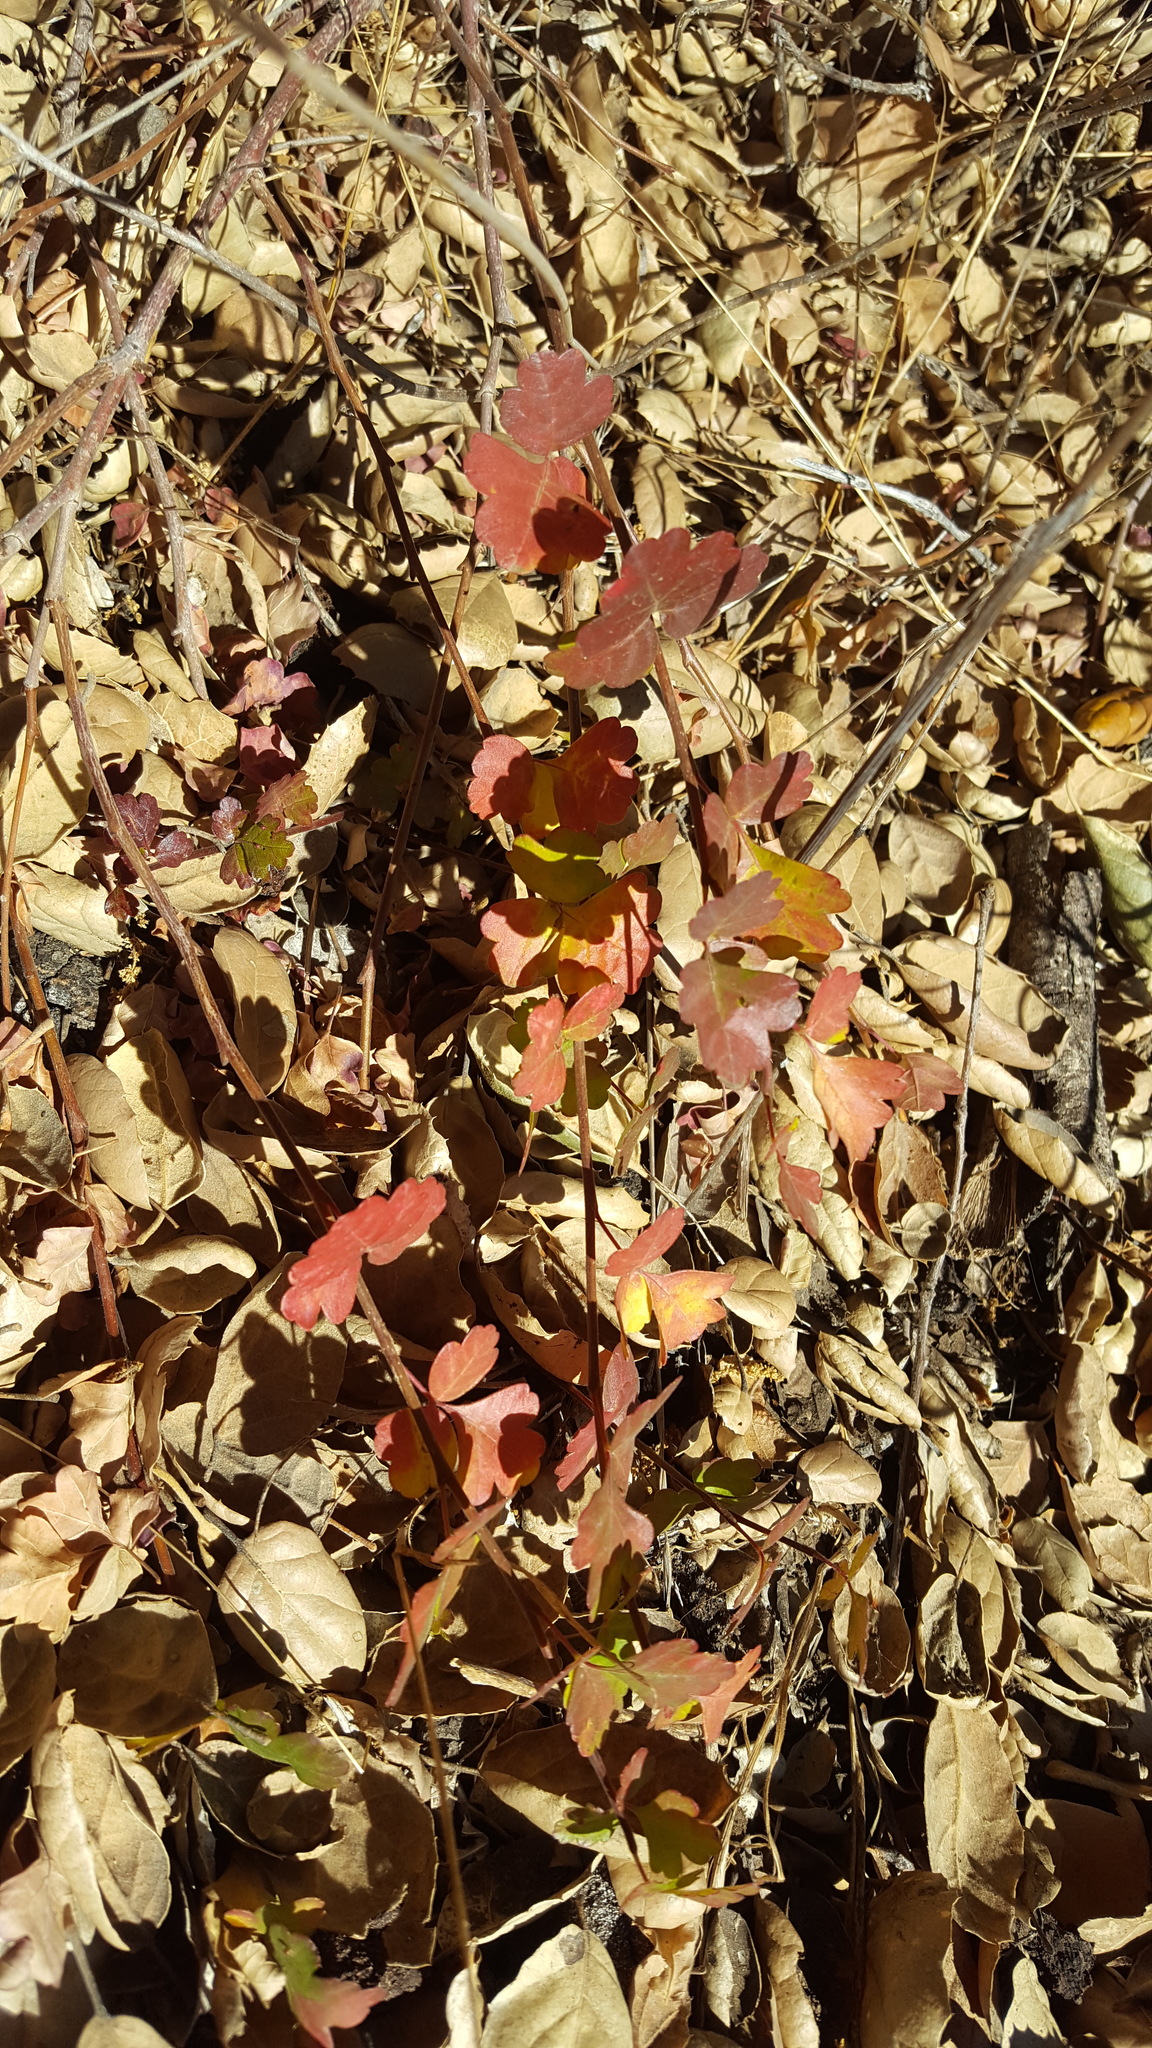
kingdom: Plantae
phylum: Tracheophyta
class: Magnoliopsida
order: Sapindales
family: Anacardiaceae
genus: Rhus
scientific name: Rhus aromatica
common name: Aromatic sumac
